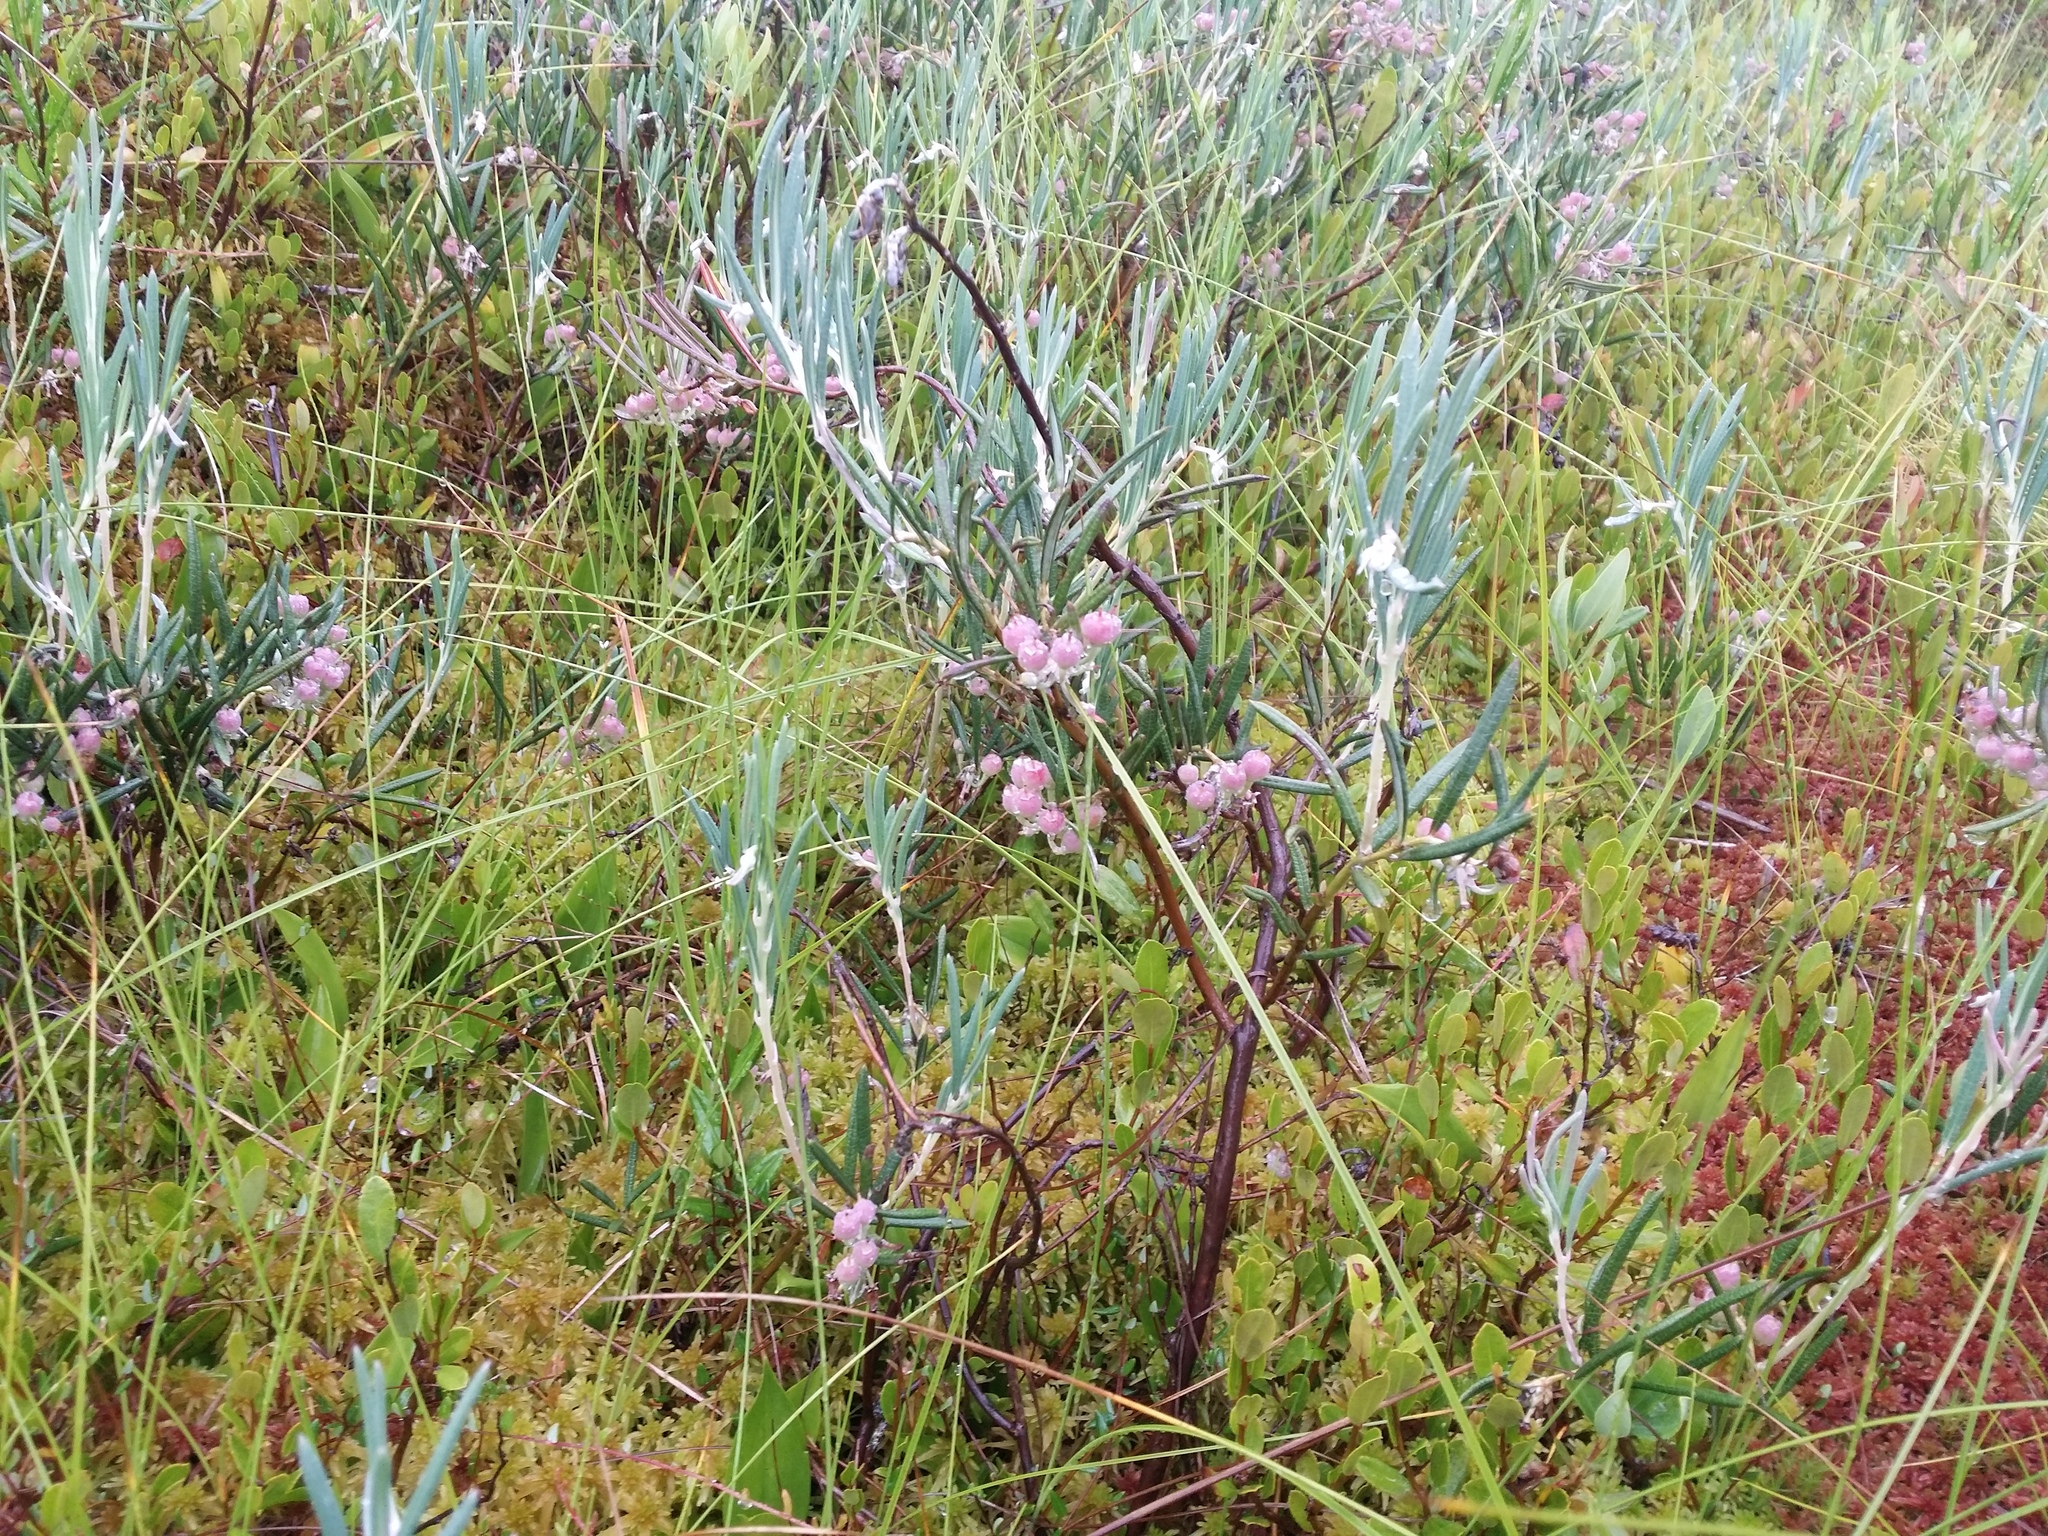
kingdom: Plantae
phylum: Tracheophyta
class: Magnoliopsida
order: Ericales
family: Ericaceae
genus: Andromeda
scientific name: Andromeda polifolia
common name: Bog-rosemary
